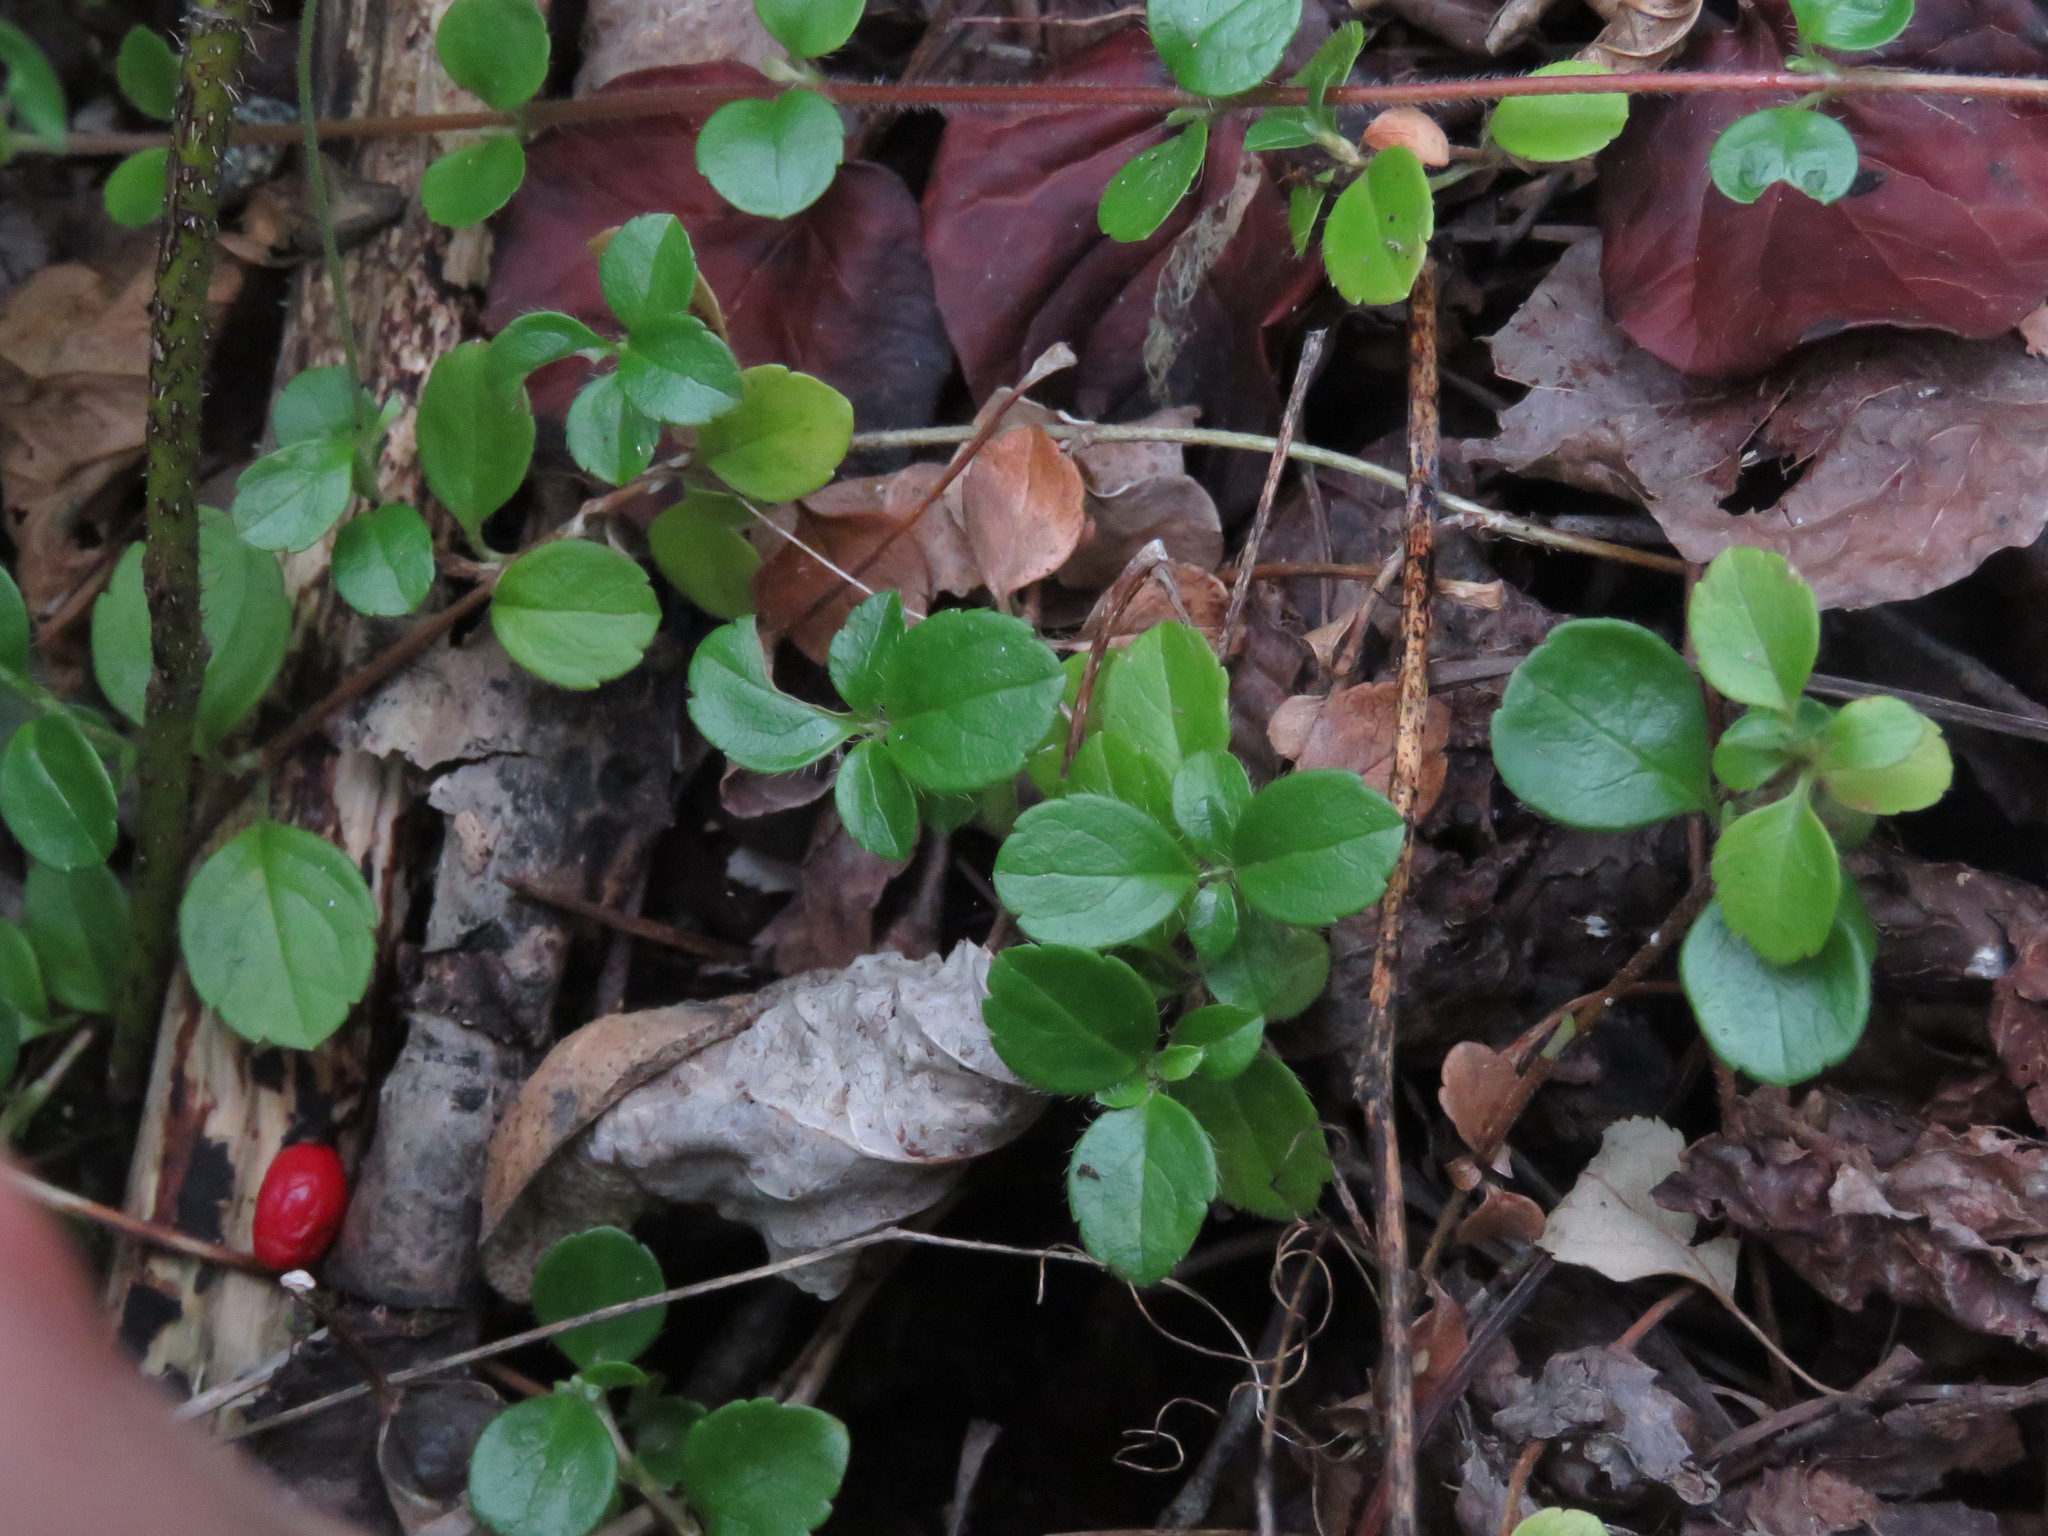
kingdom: Plantae
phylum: Tracheophyta
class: Magnoliopsida
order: Dipsacales
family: Caprifoliaceae
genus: Linnaea
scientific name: Linnaea borealis
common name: Twinflower
